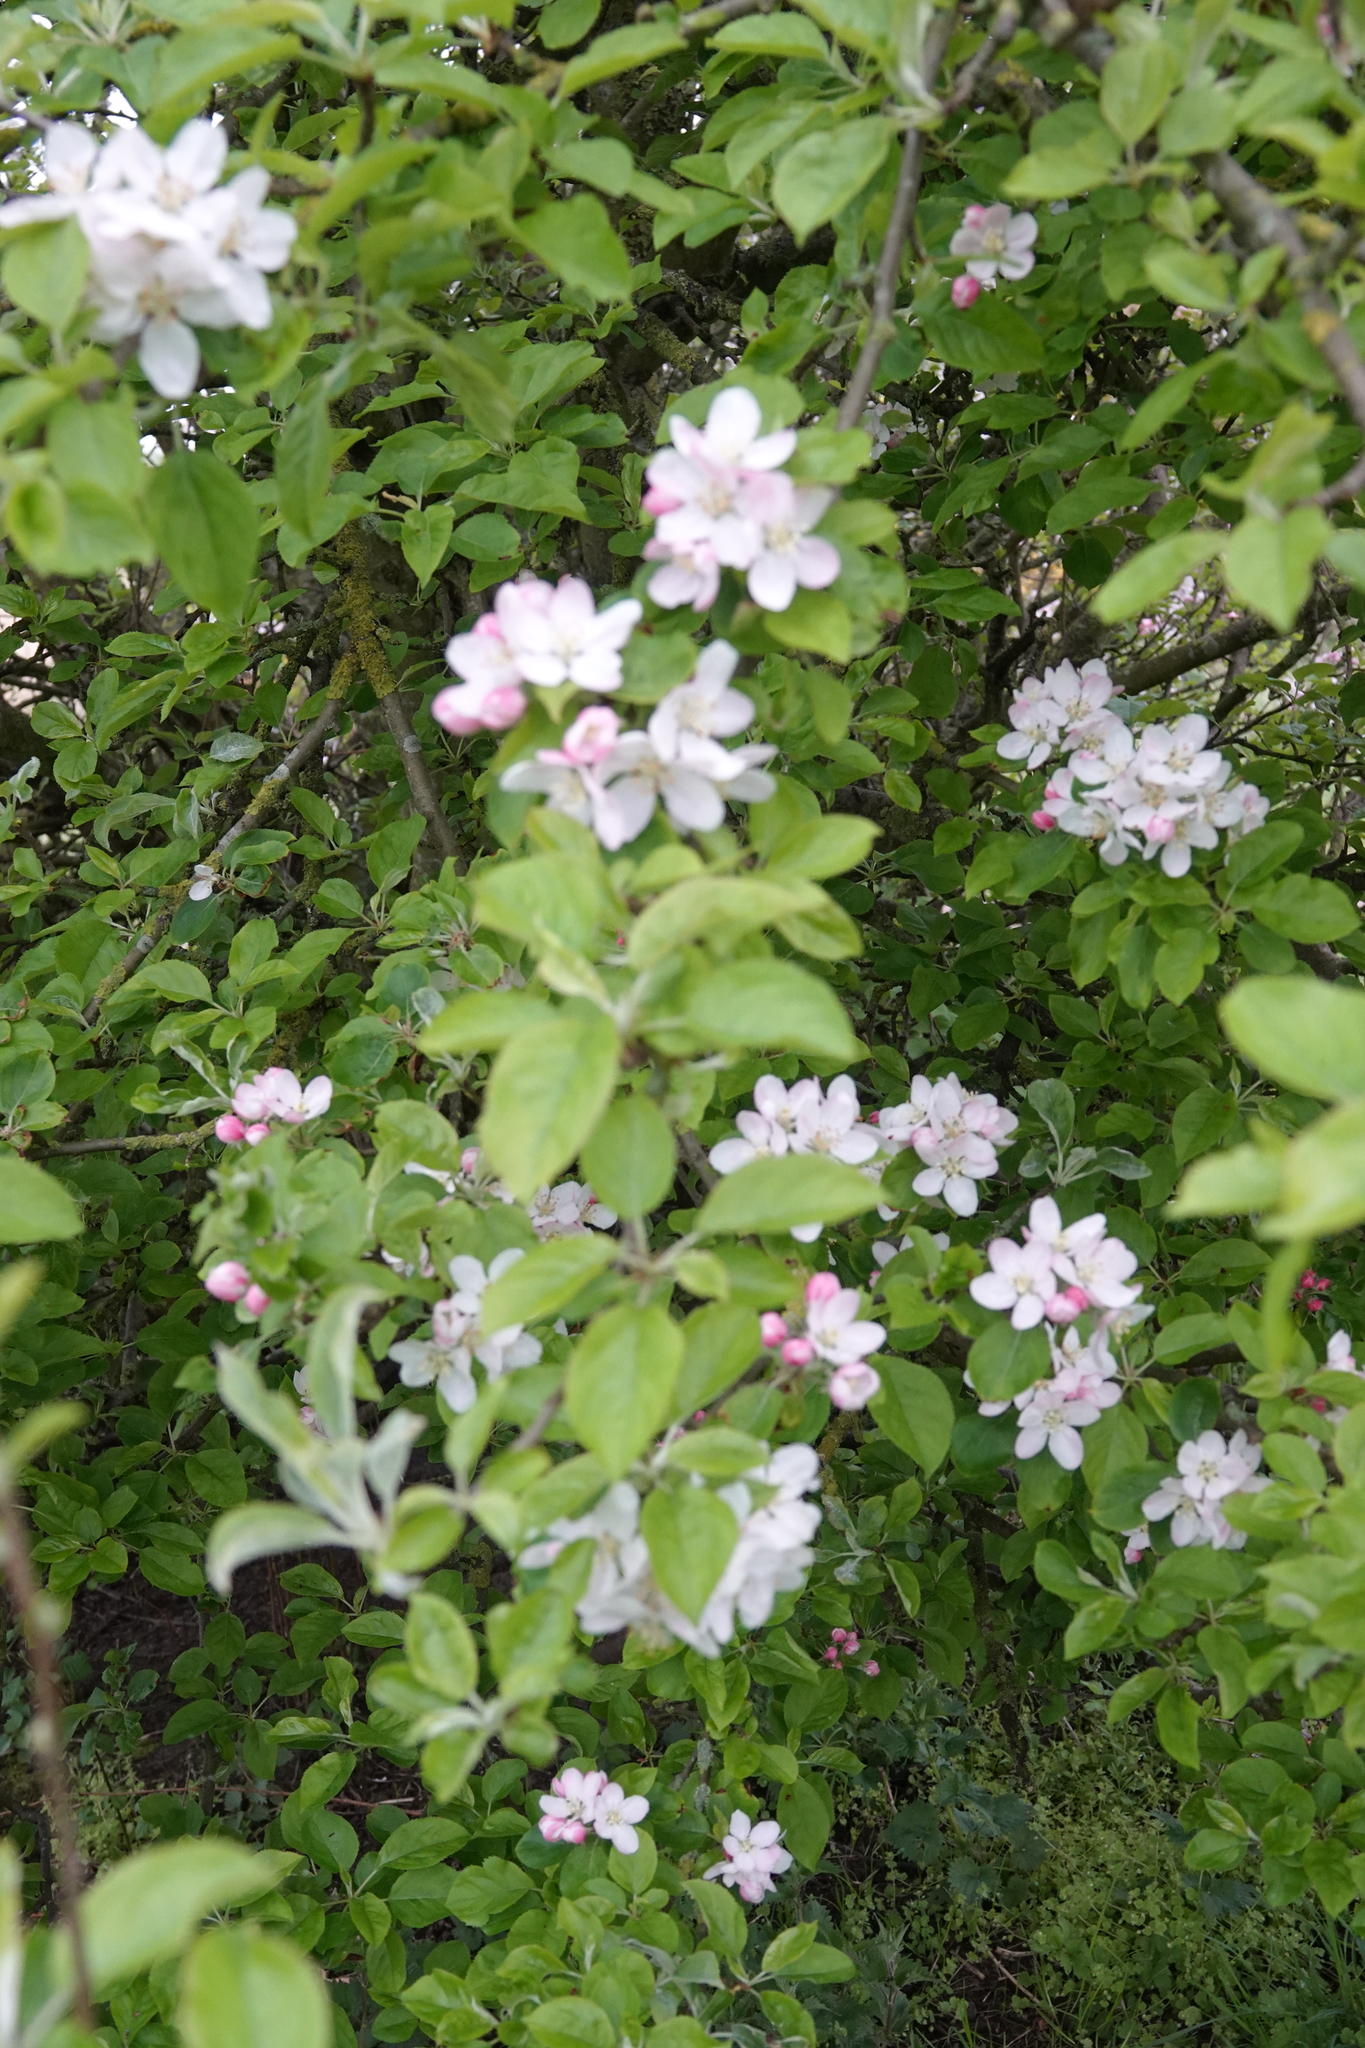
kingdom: Plantae
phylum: Tracheophyta
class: Magnoliopsida
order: Rosales
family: Rosaceae
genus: Malus
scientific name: Malus domestica
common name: Apple
